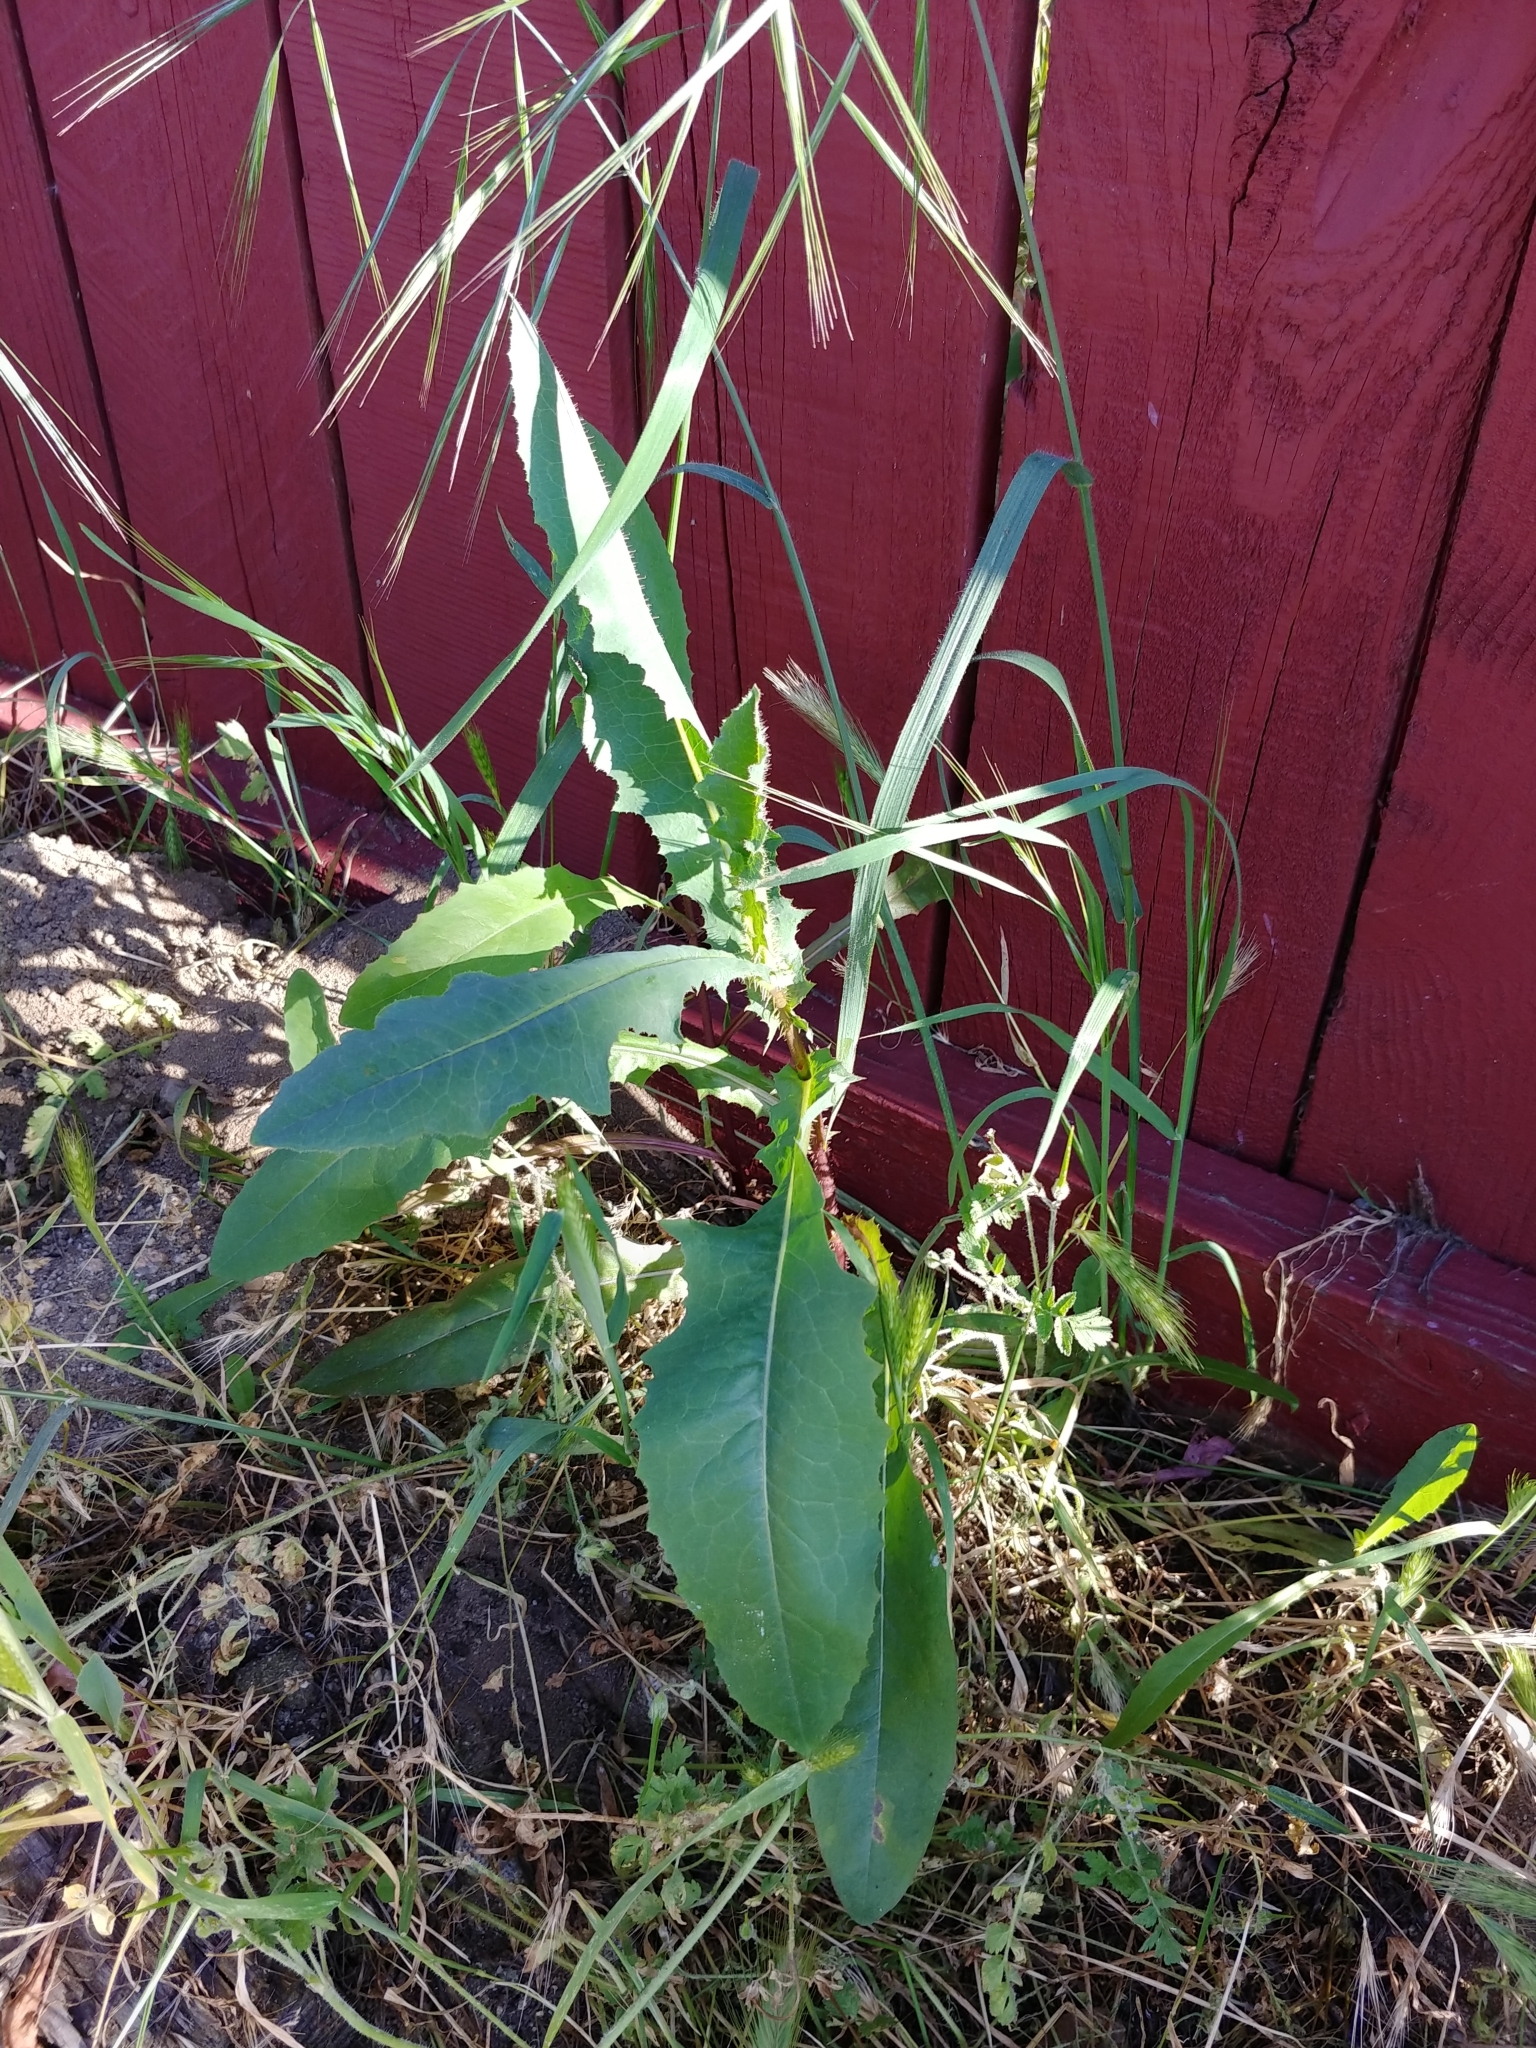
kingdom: Plantae
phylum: Tracheophyta
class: Magnoliopsida
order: Asterales
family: Asteraceae
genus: Lactuca
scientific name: Lactuca serriola
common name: Prickly lettuce
